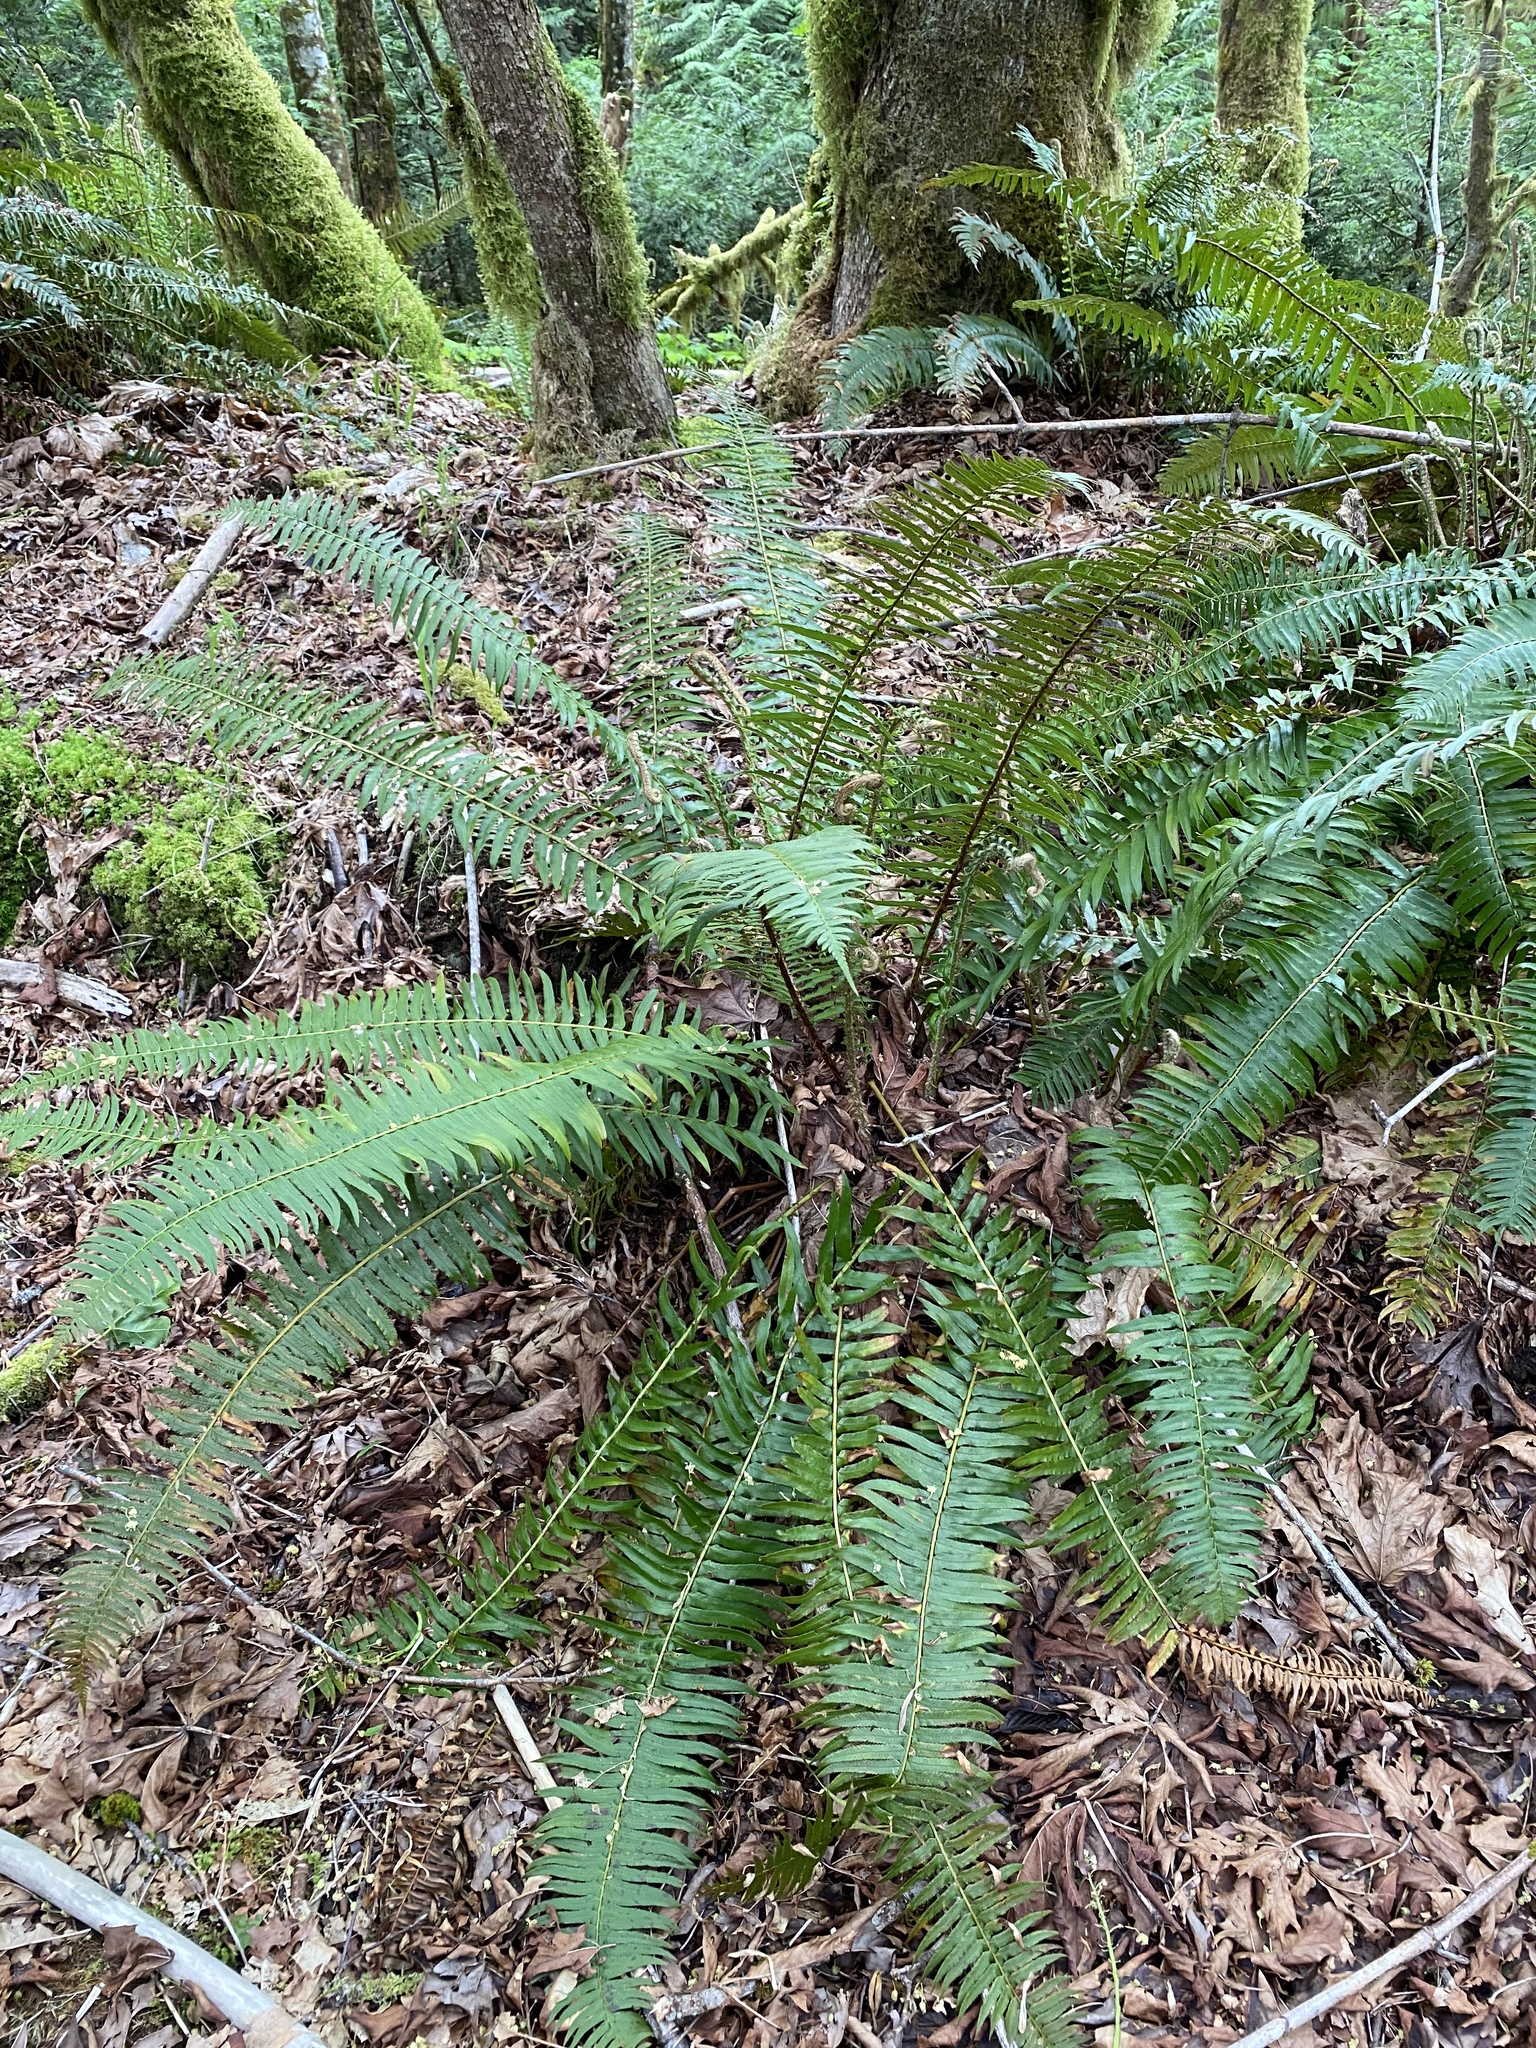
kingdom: Plantae
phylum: Tracheophyta
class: Polypodiopsida
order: Polypodiales
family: Dryopteridaceae
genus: Polystichum
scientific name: Polystichum munitum
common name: Western sword-fern
